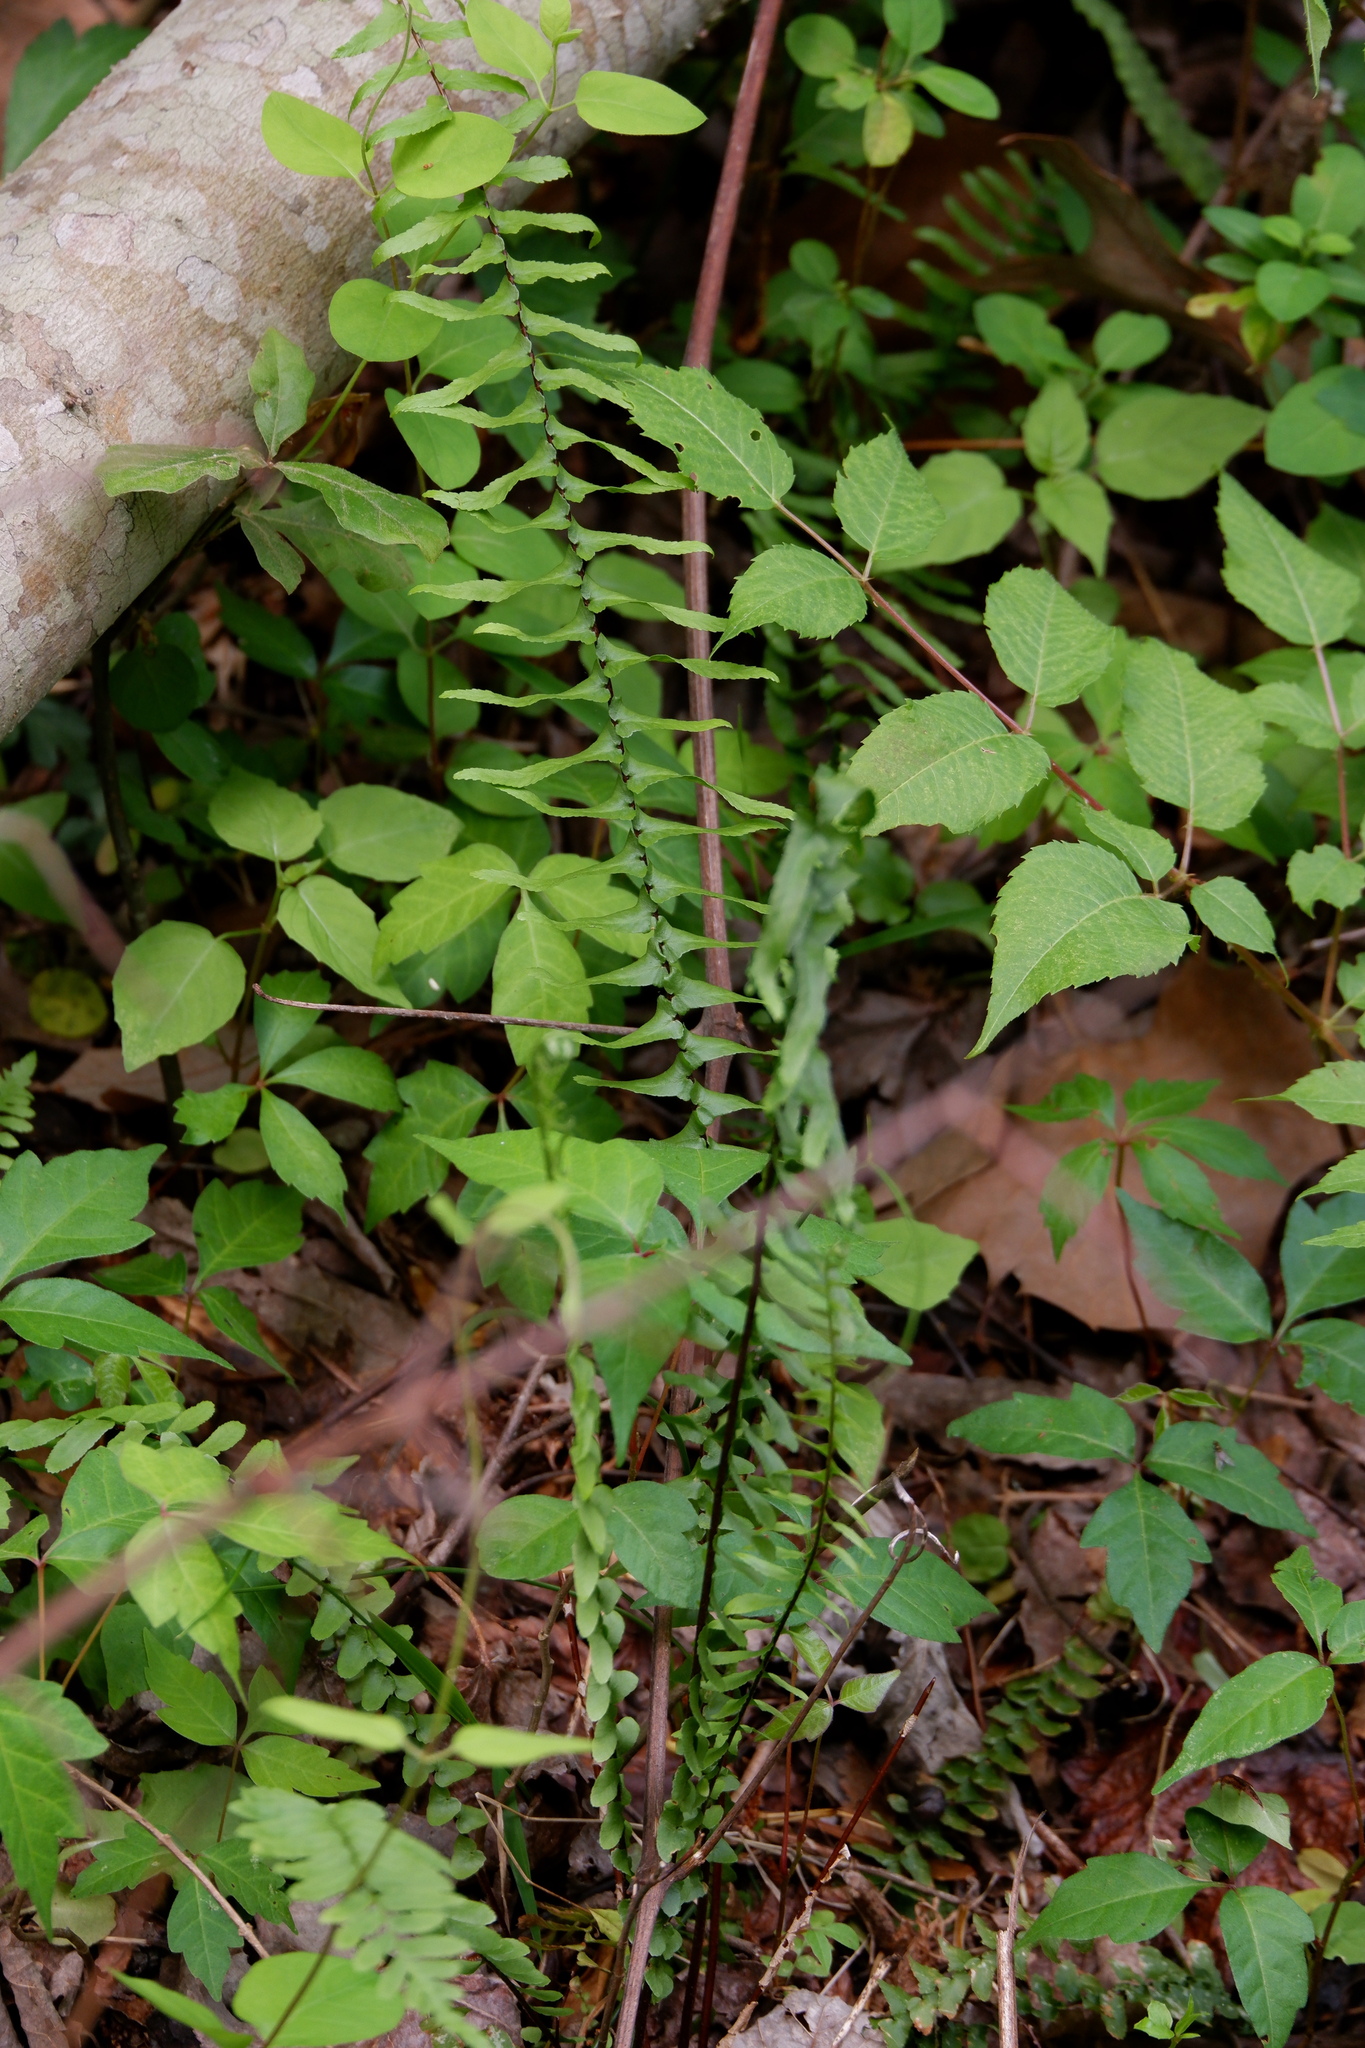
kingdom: Plantae
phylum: Tracheophyta
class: Polypodiopsida
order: Polypodiales
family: Aspleniaceae
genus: Asplenium
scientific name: Asplenium platyneuron
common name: Ebony spleenwort
